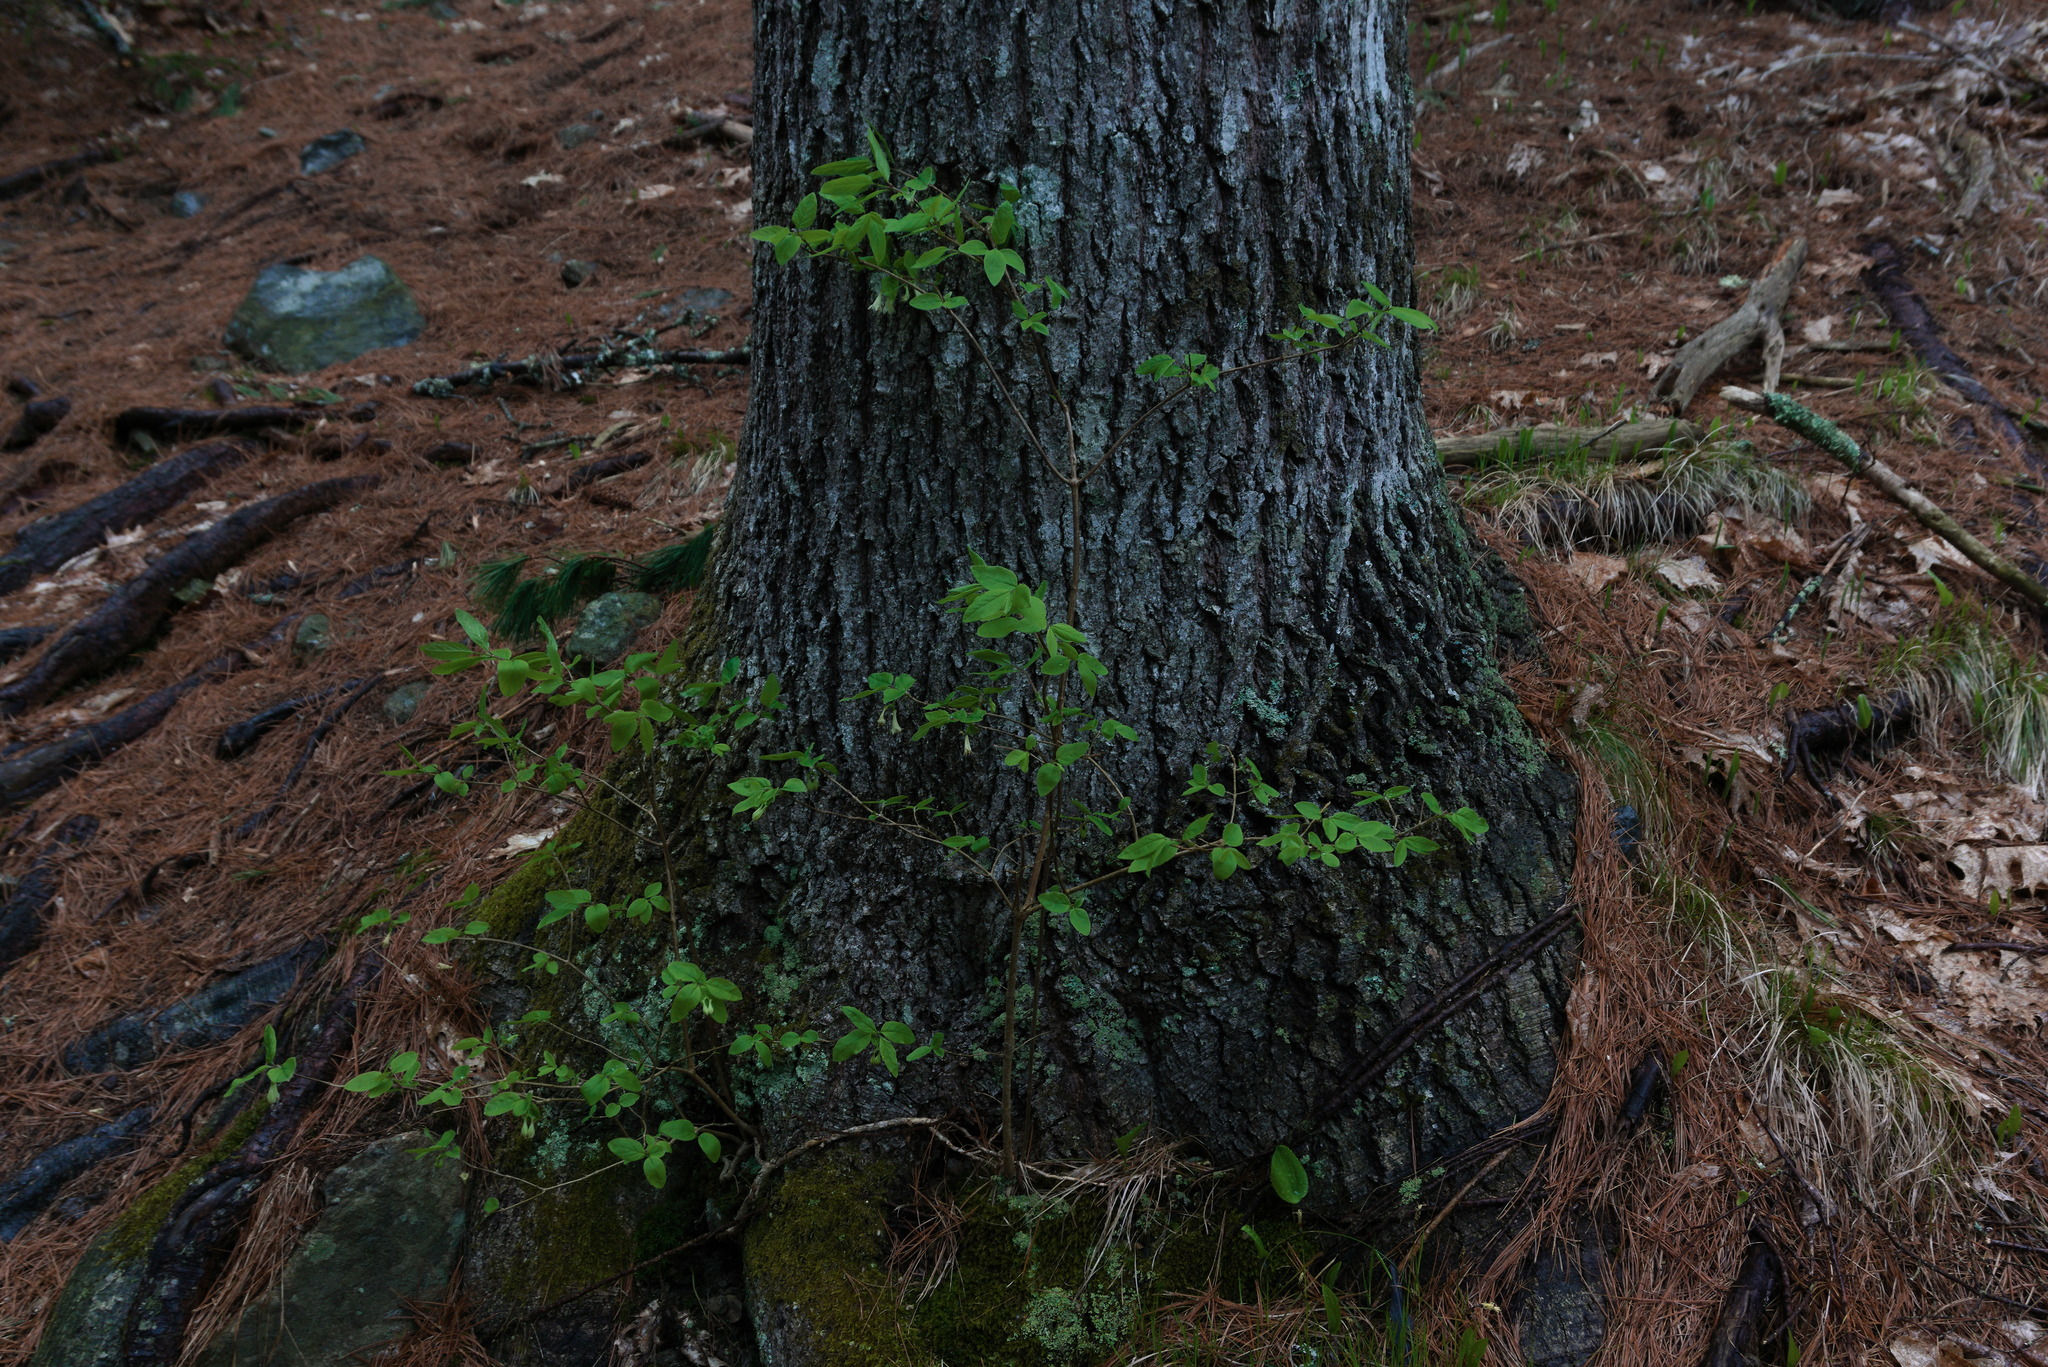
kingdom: Plantae
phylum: Tracheophyta
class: Magnoliopsida
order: Dipsacales
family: Caprifoliaceae
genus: Lonicera
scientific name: Lonicera canadensis
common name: American fly-honeysuckle
